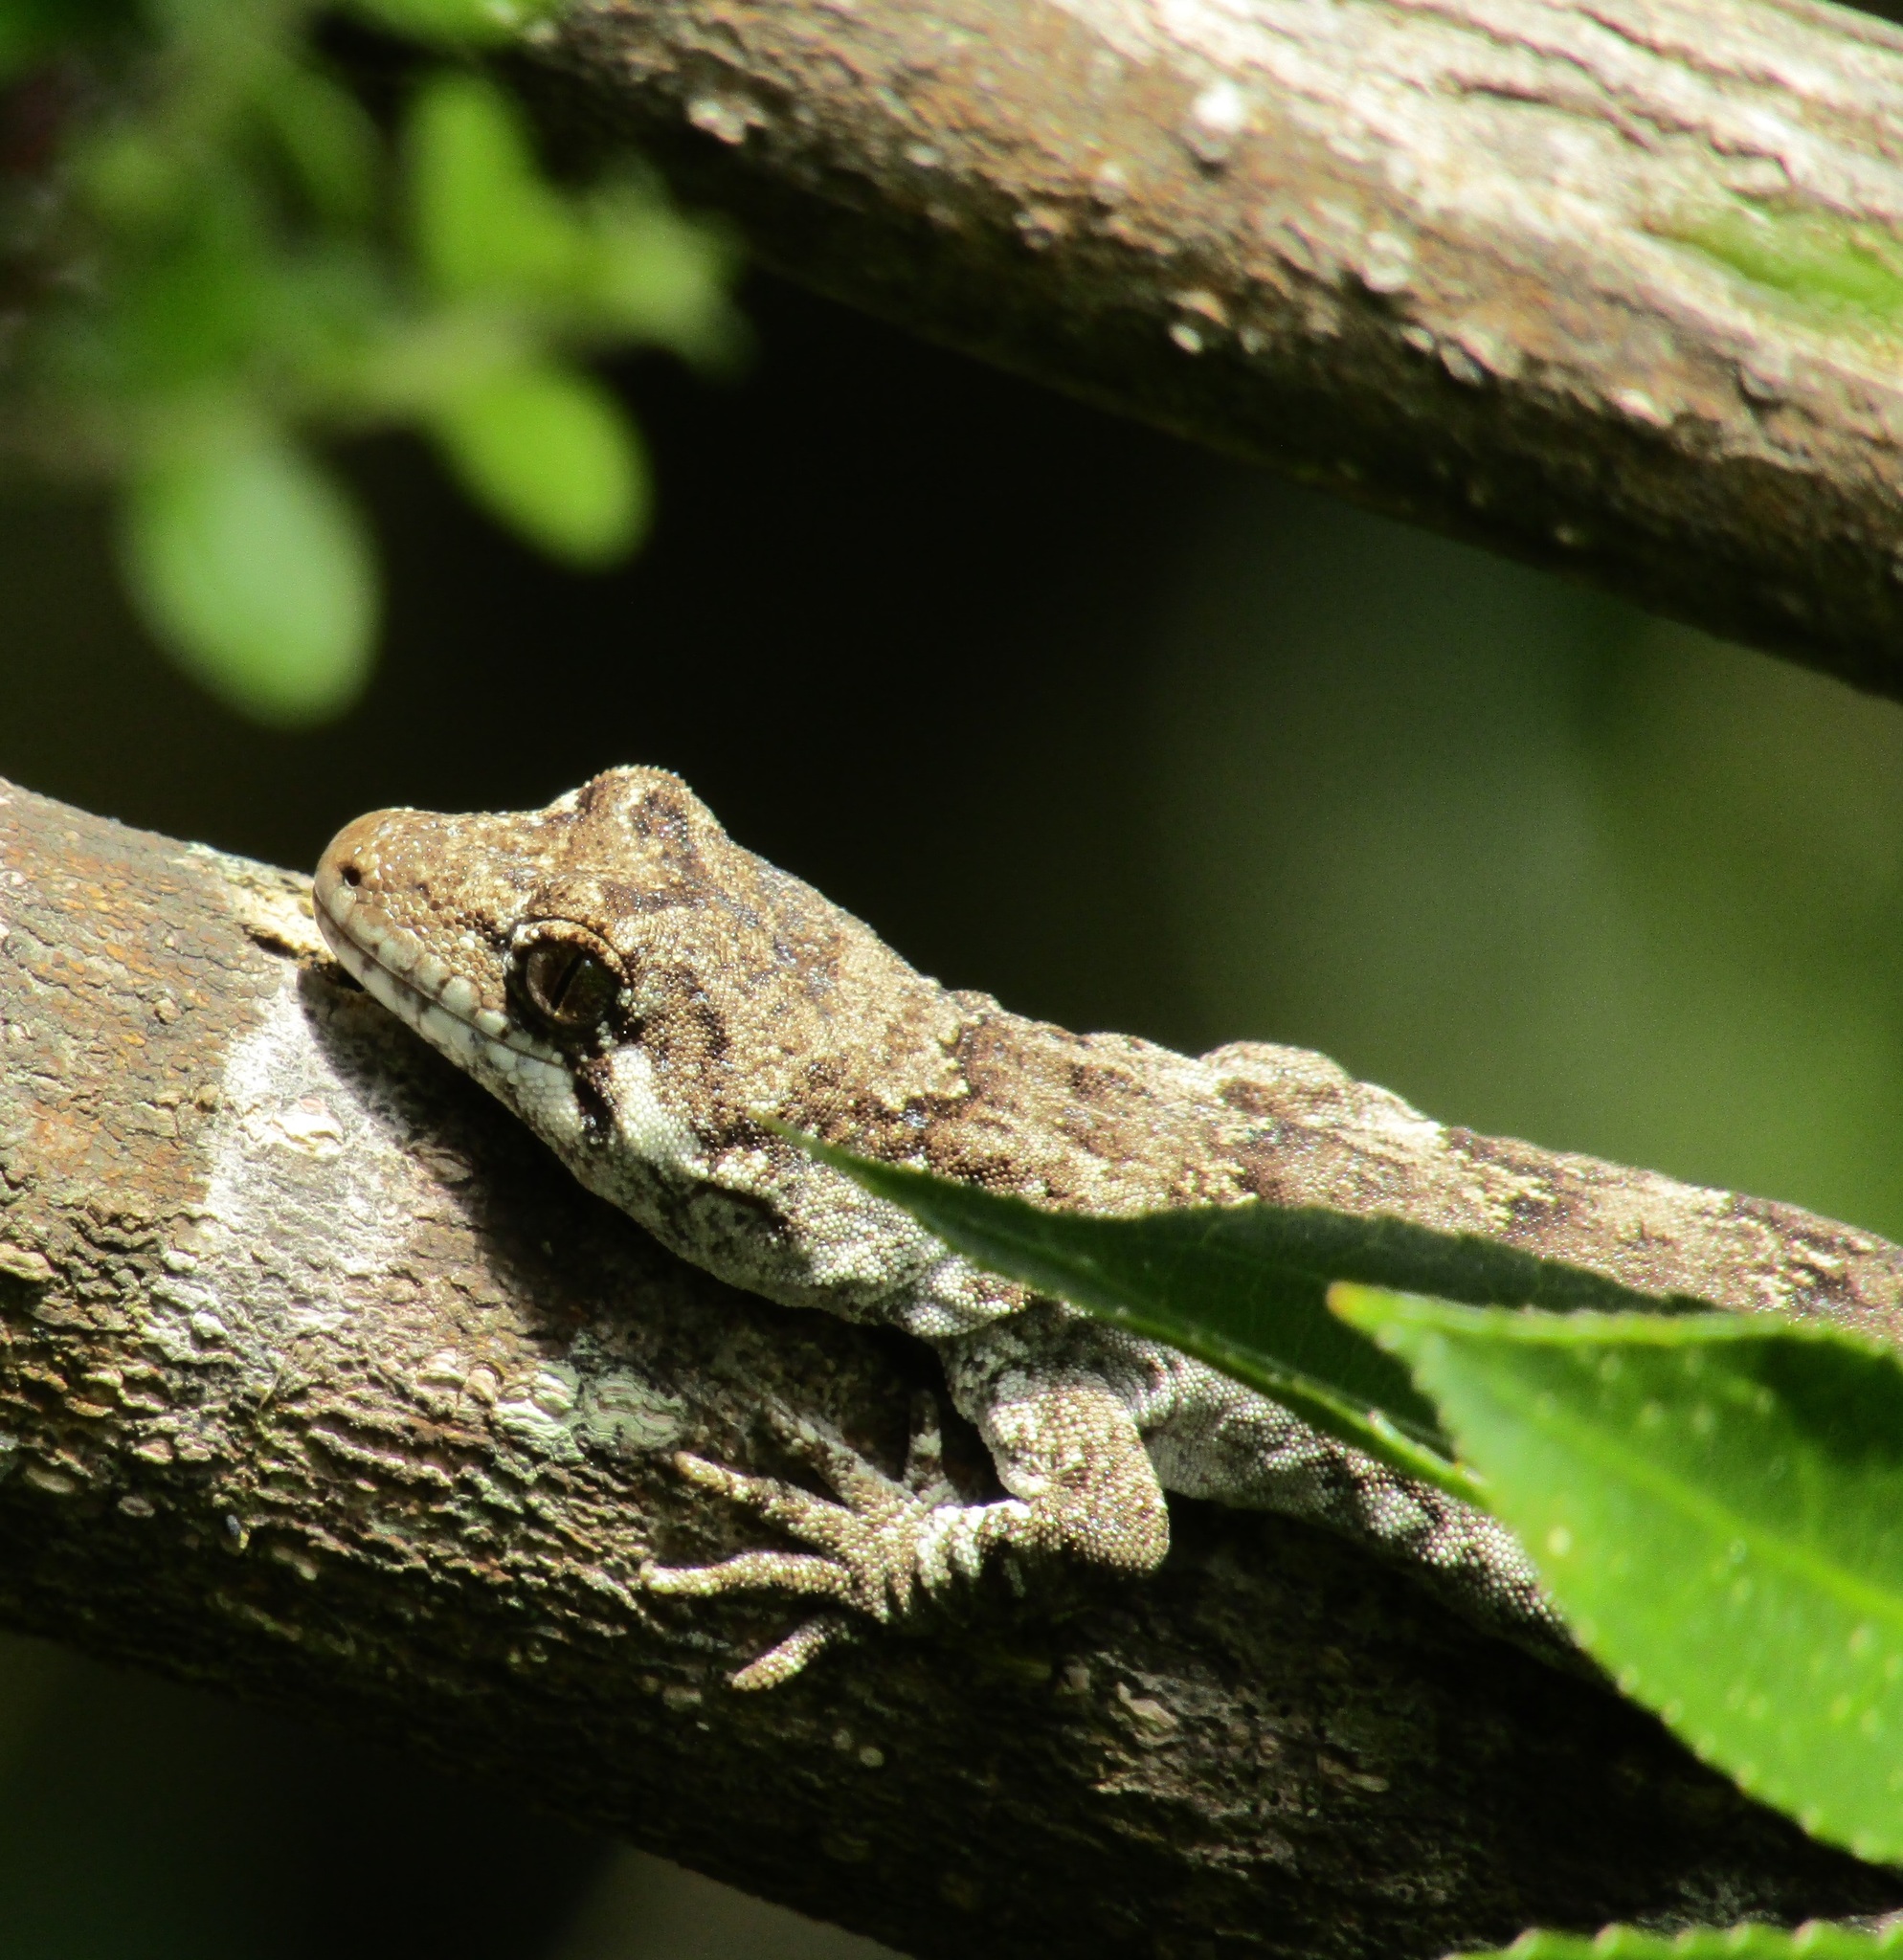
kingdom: Animalia
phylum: Chordata
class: Squamata
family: Diplodactylidae
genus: Mokopirirakau
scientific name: Mokopirirakau
